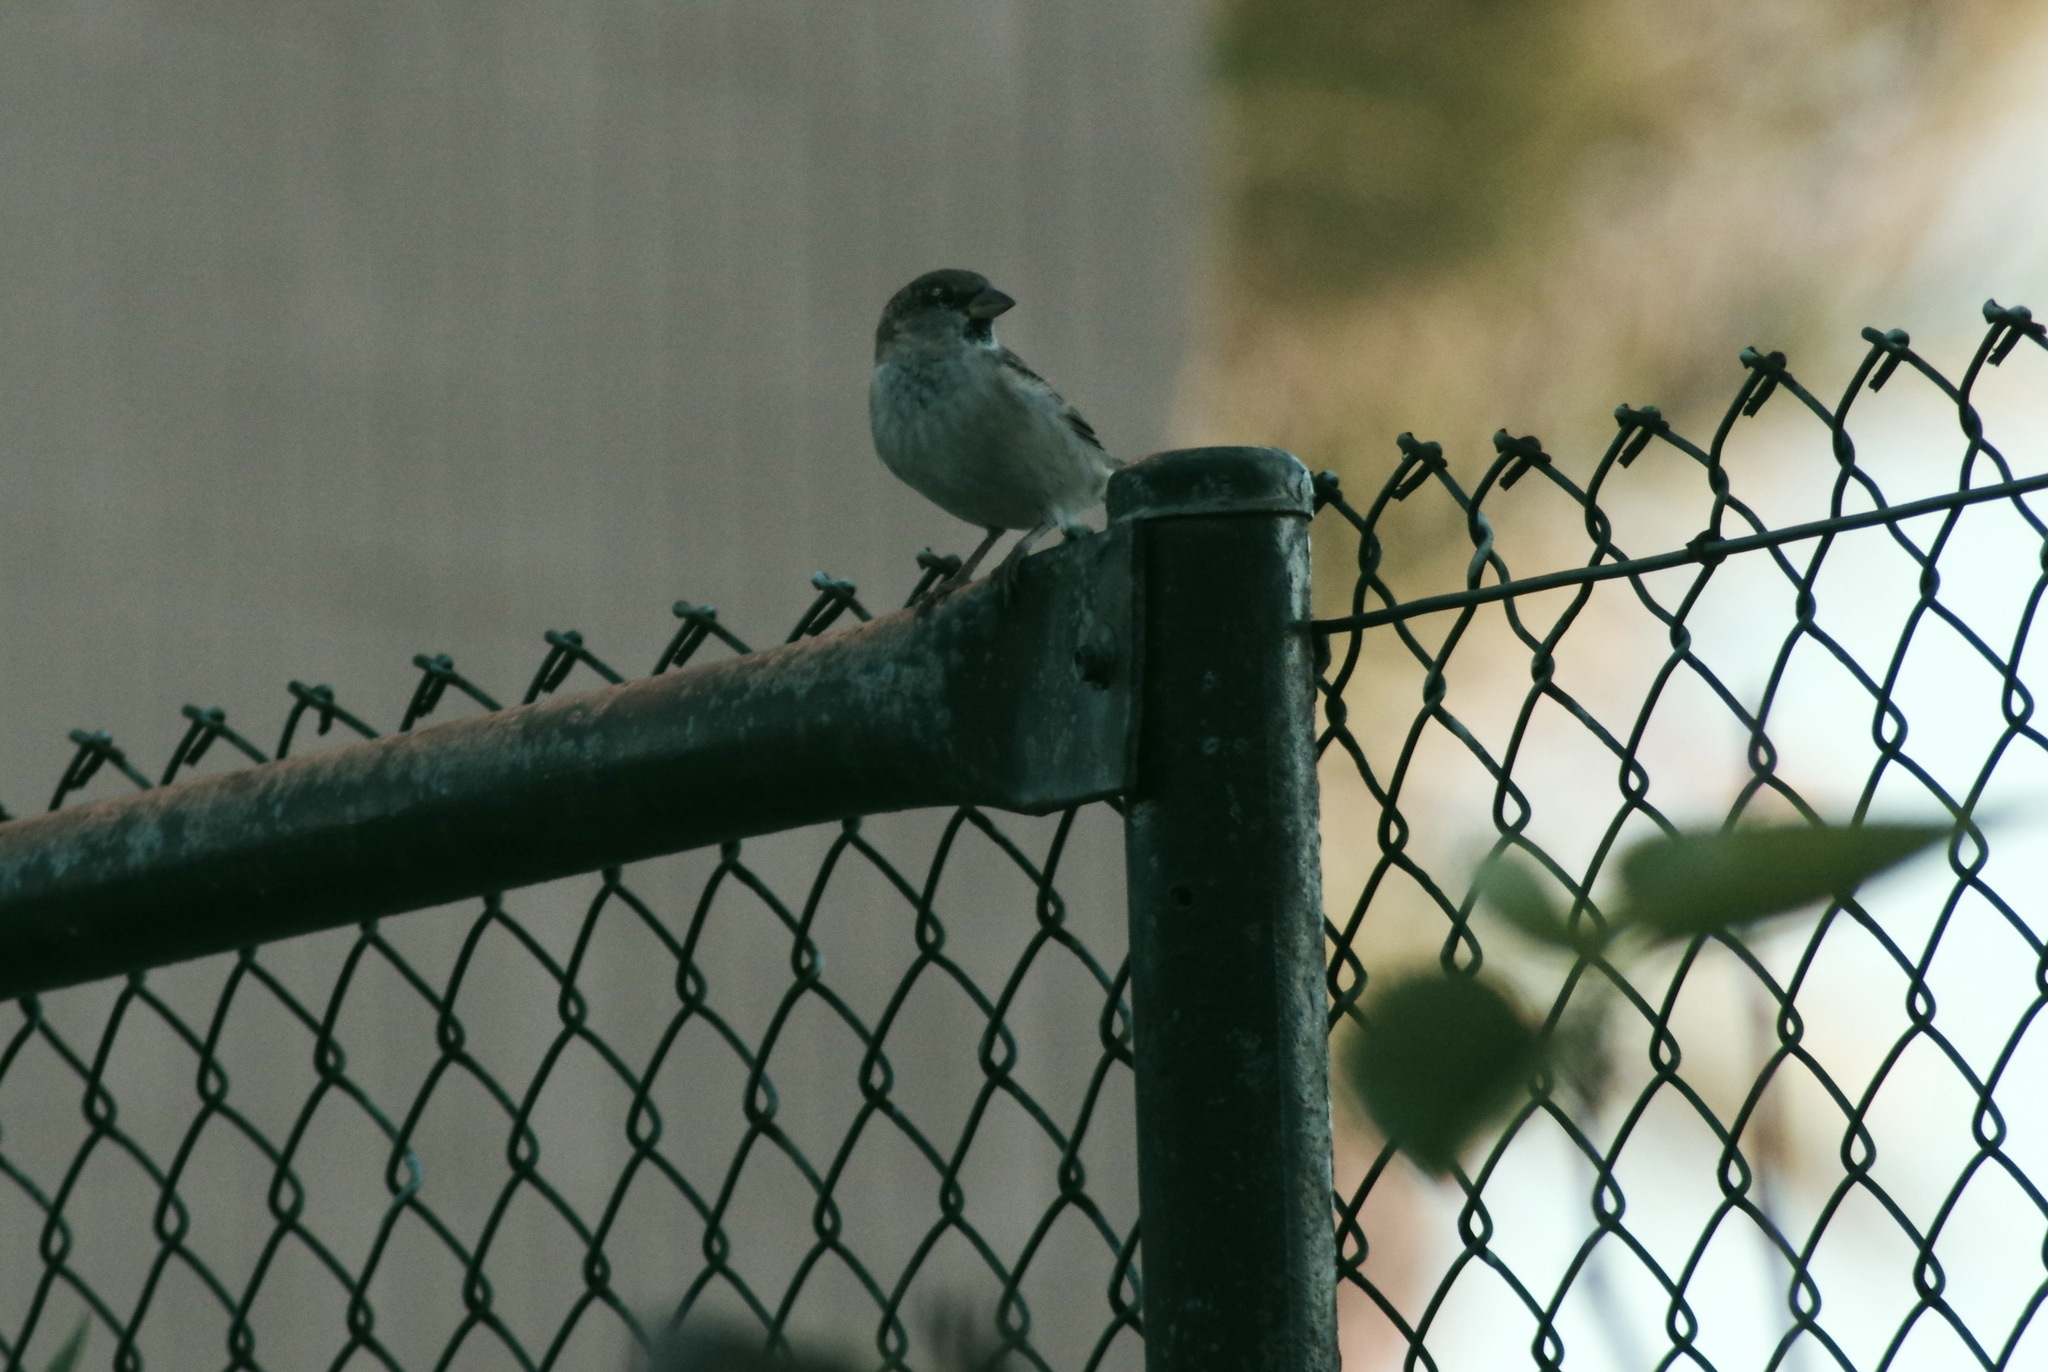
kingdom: Animalia
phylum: Chordata
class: Aves
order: Passeriformes
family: Passeridae
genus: Passer
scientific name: Passer domesticus
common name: House sparrow
